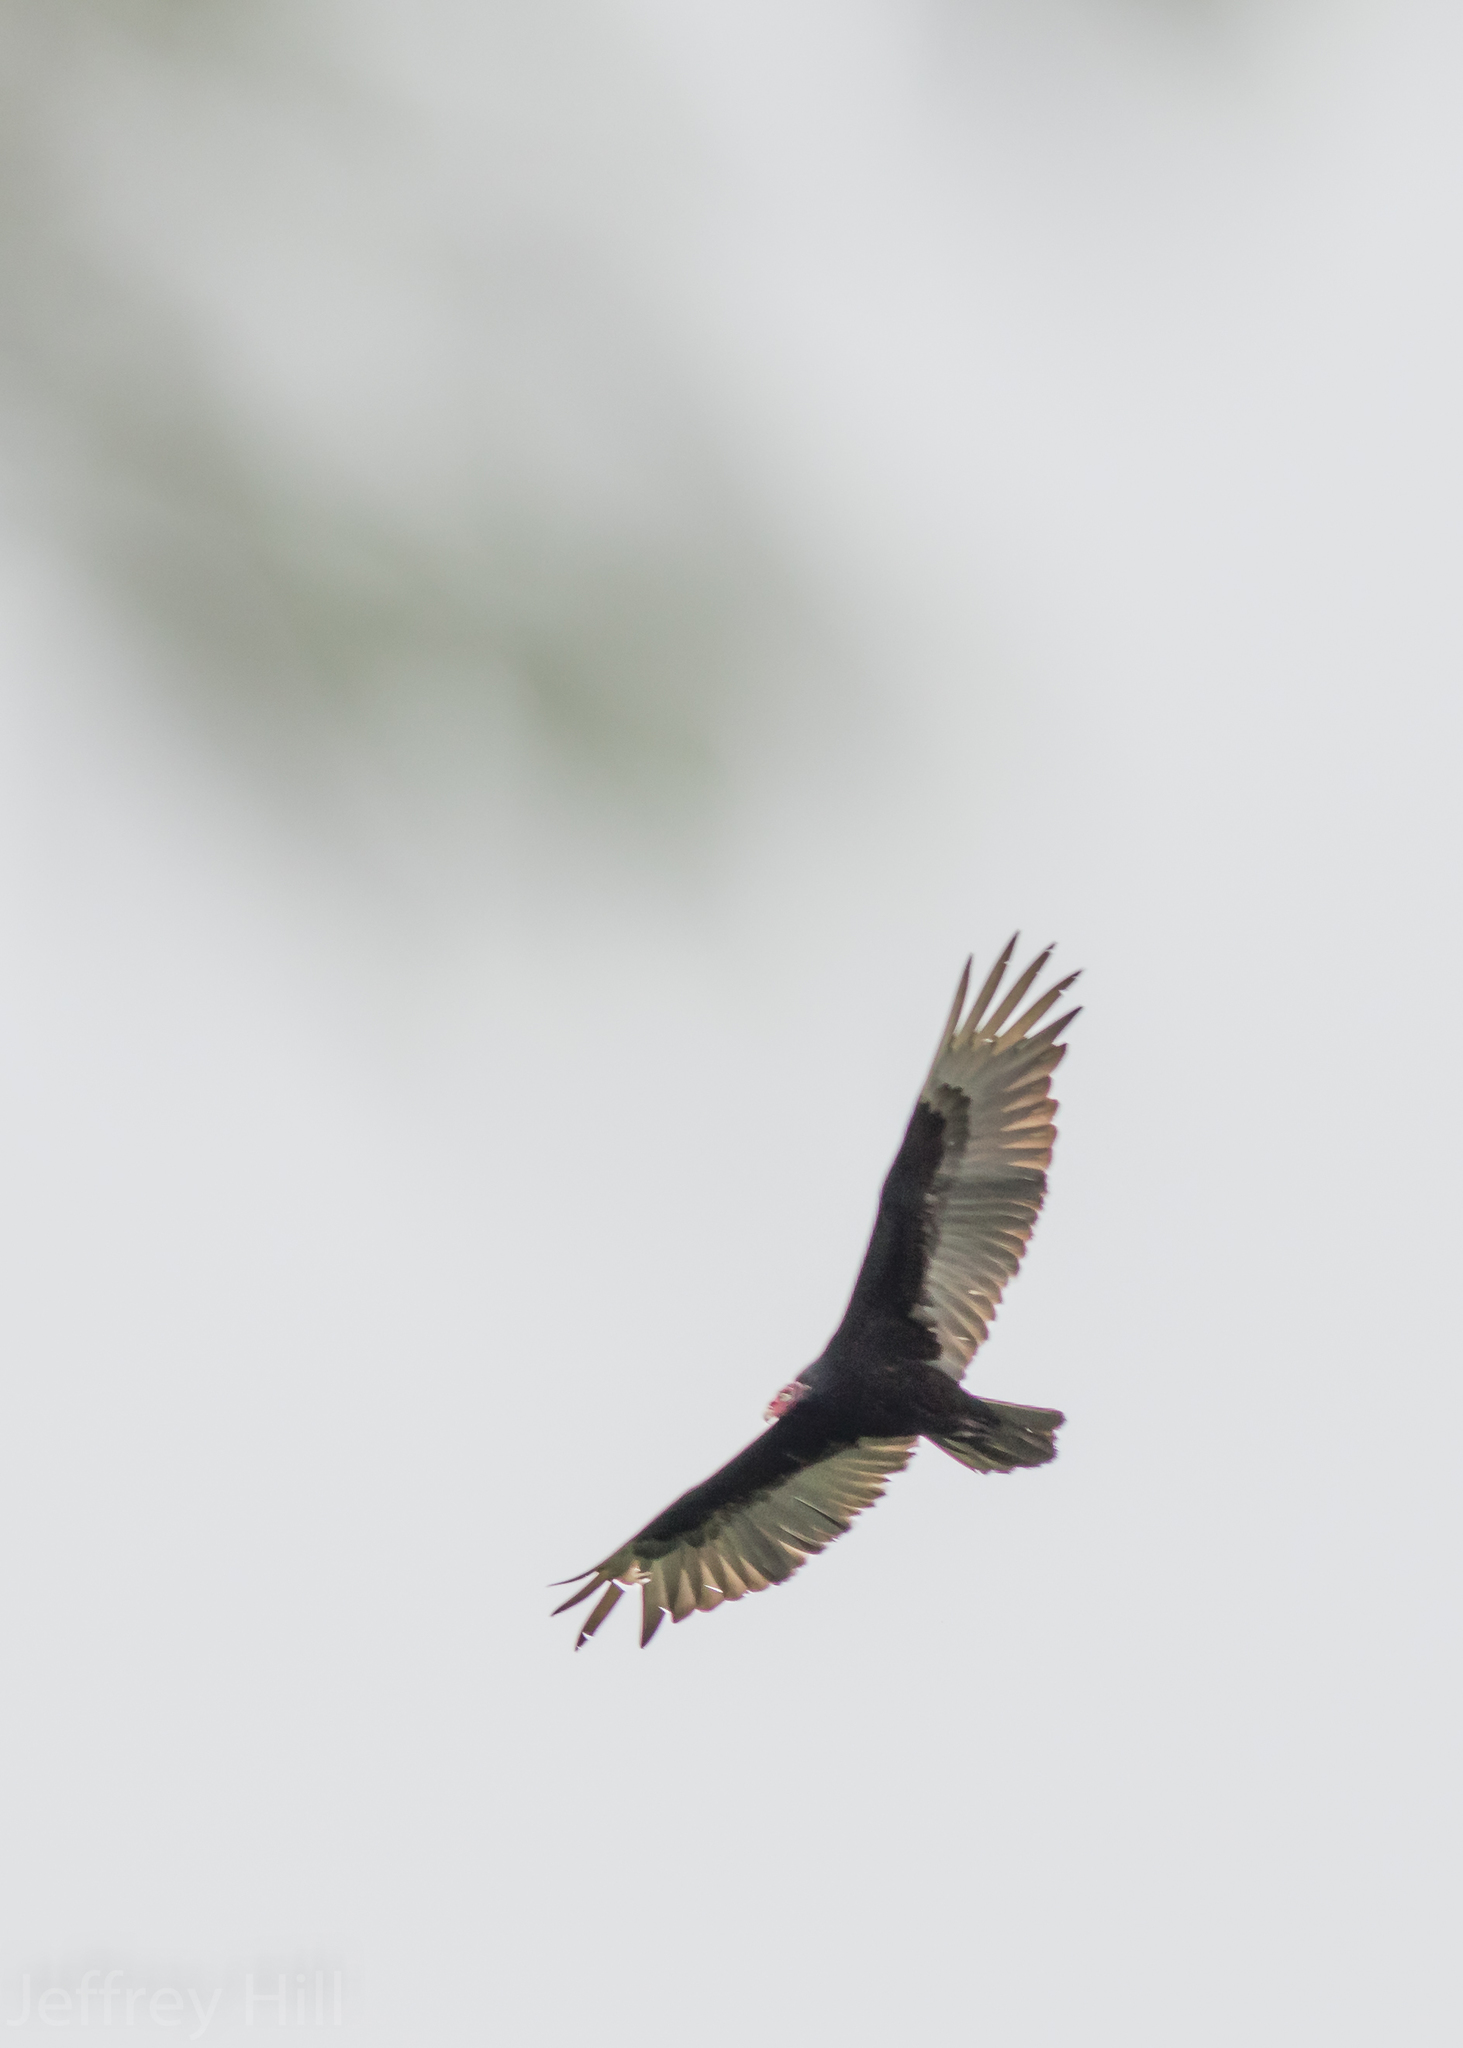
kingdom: Animalia
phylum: Chordata
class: Aves
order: Accipitriformes
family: Cathartidae
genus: Cathartes
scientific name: Cathartes aura
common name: Turkey vulture
